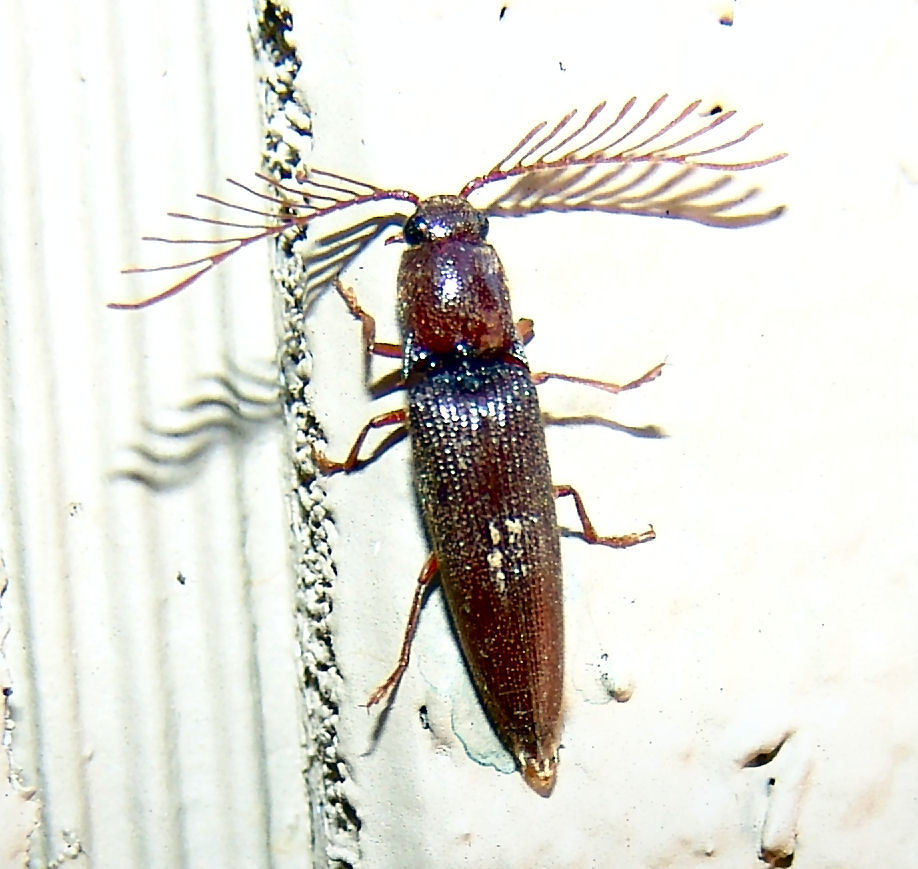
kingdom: Animalia
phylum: Arthropoda
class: Insecta
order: Coleoptera
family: Elateridae
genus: Dicrepidius
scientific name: Dicrepidius palmatus
